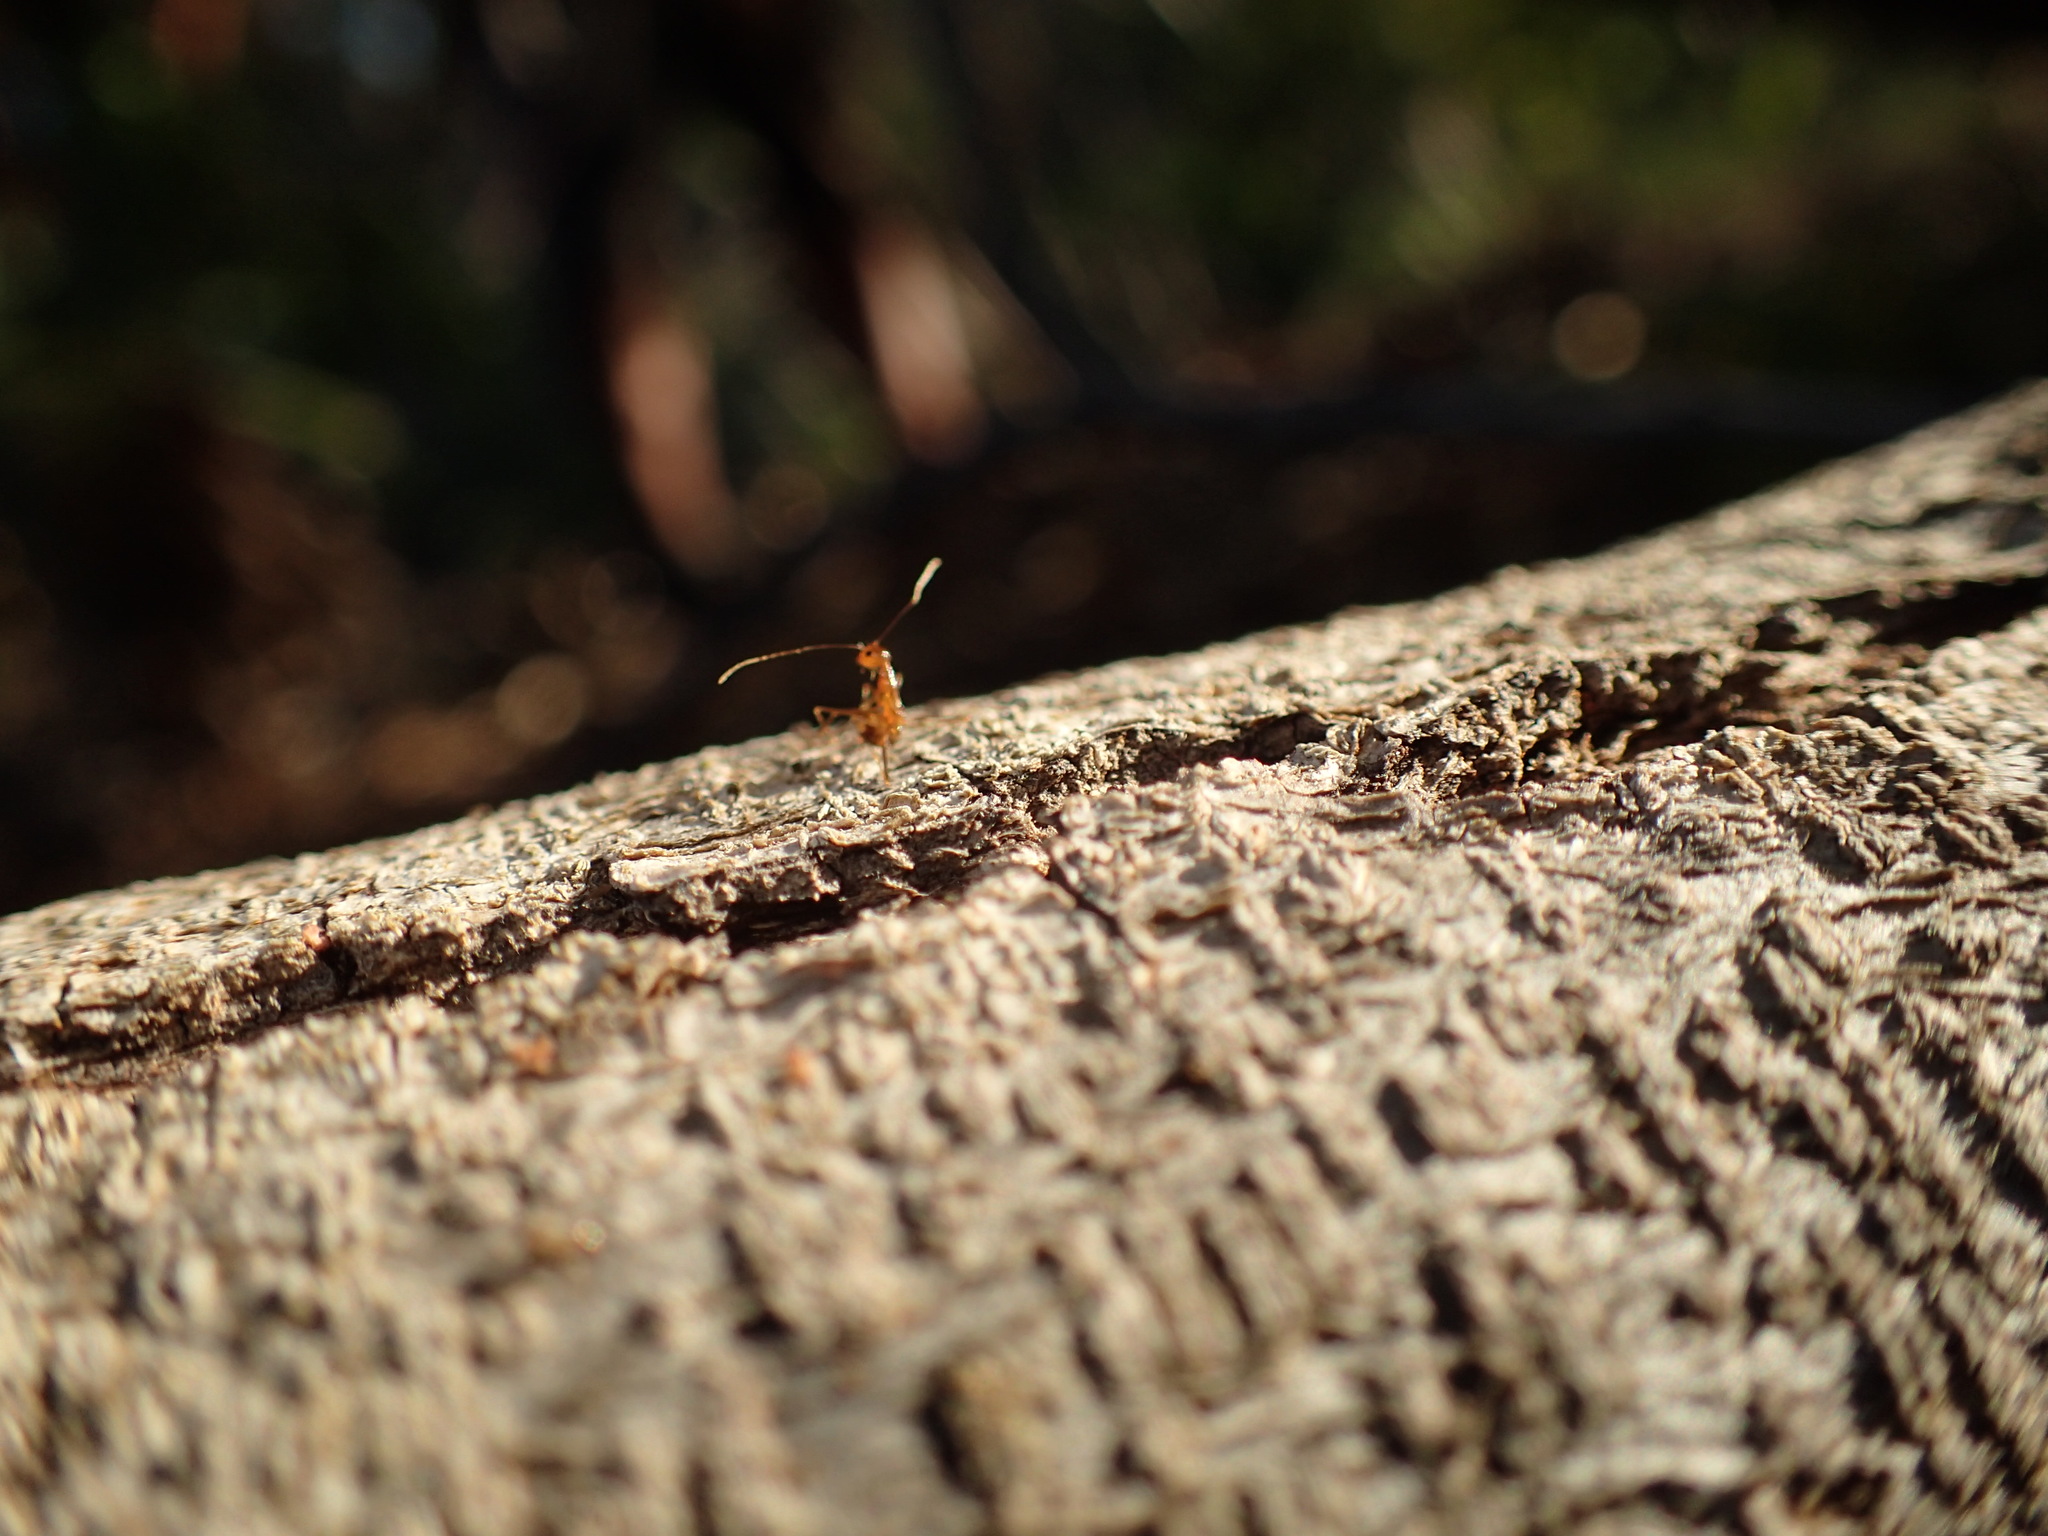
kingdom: Animalia
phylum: Arthropoda
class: Insecta
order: Hymenoptera
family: Formicidae
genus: Anoplolepis
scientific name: Anoplolepis gracilipes
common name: Ant
